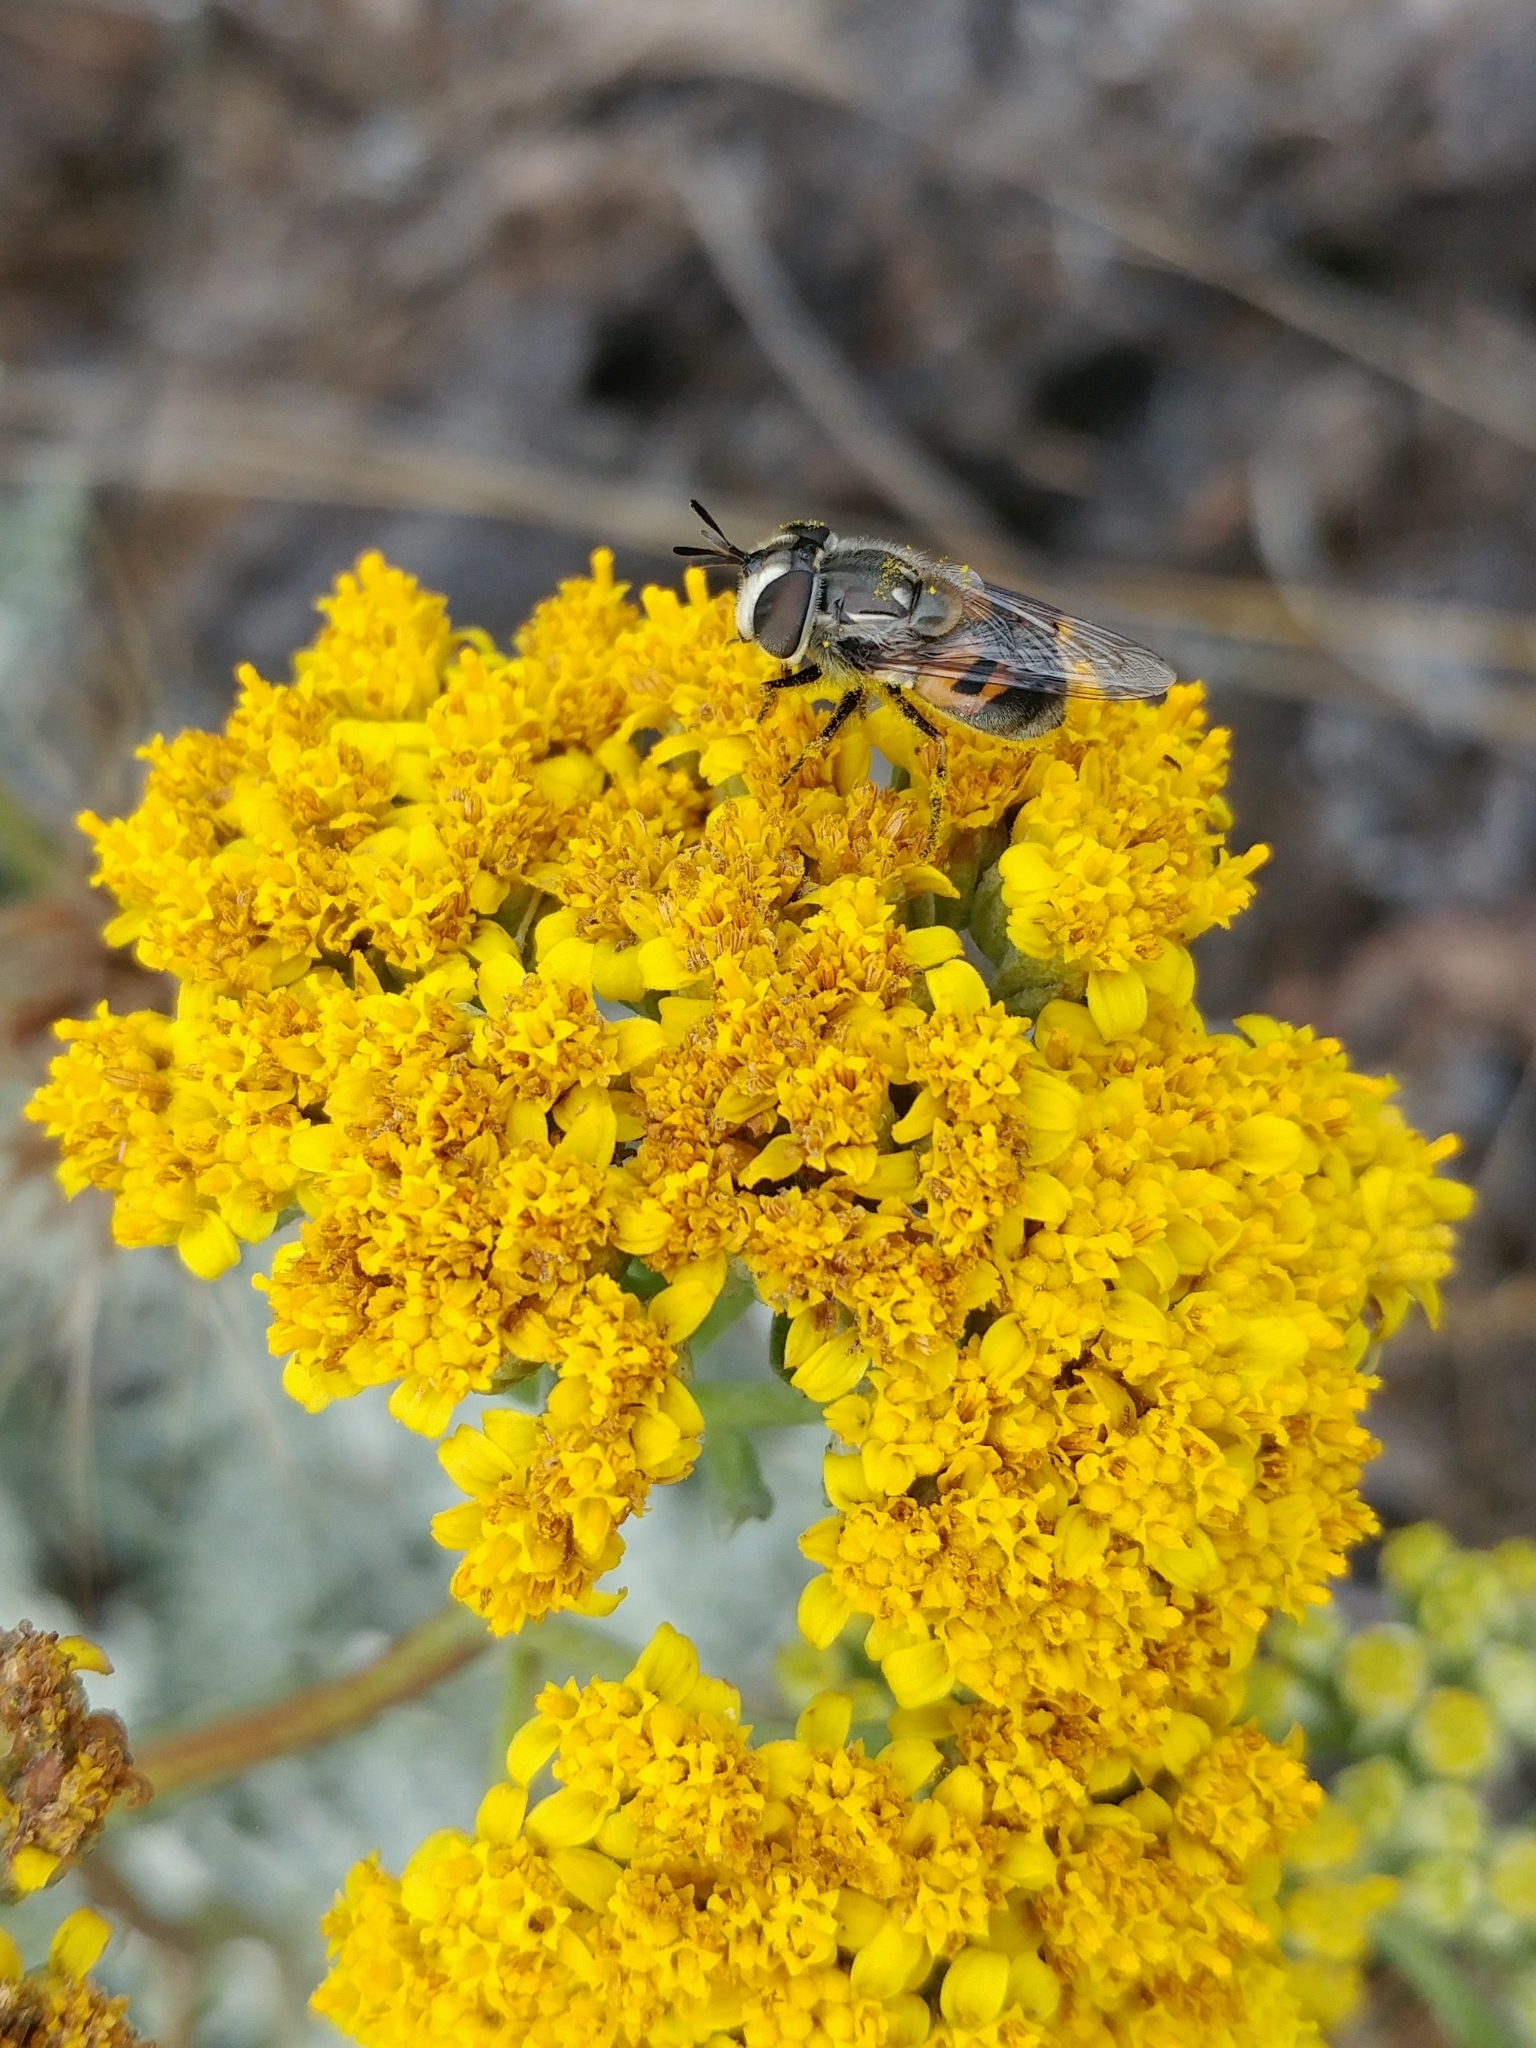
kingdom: Animalia
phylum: Arthropoda
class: Insecta
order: Diptera
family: Syrphidae
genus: Copestylum
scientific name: Copestylum lentum
